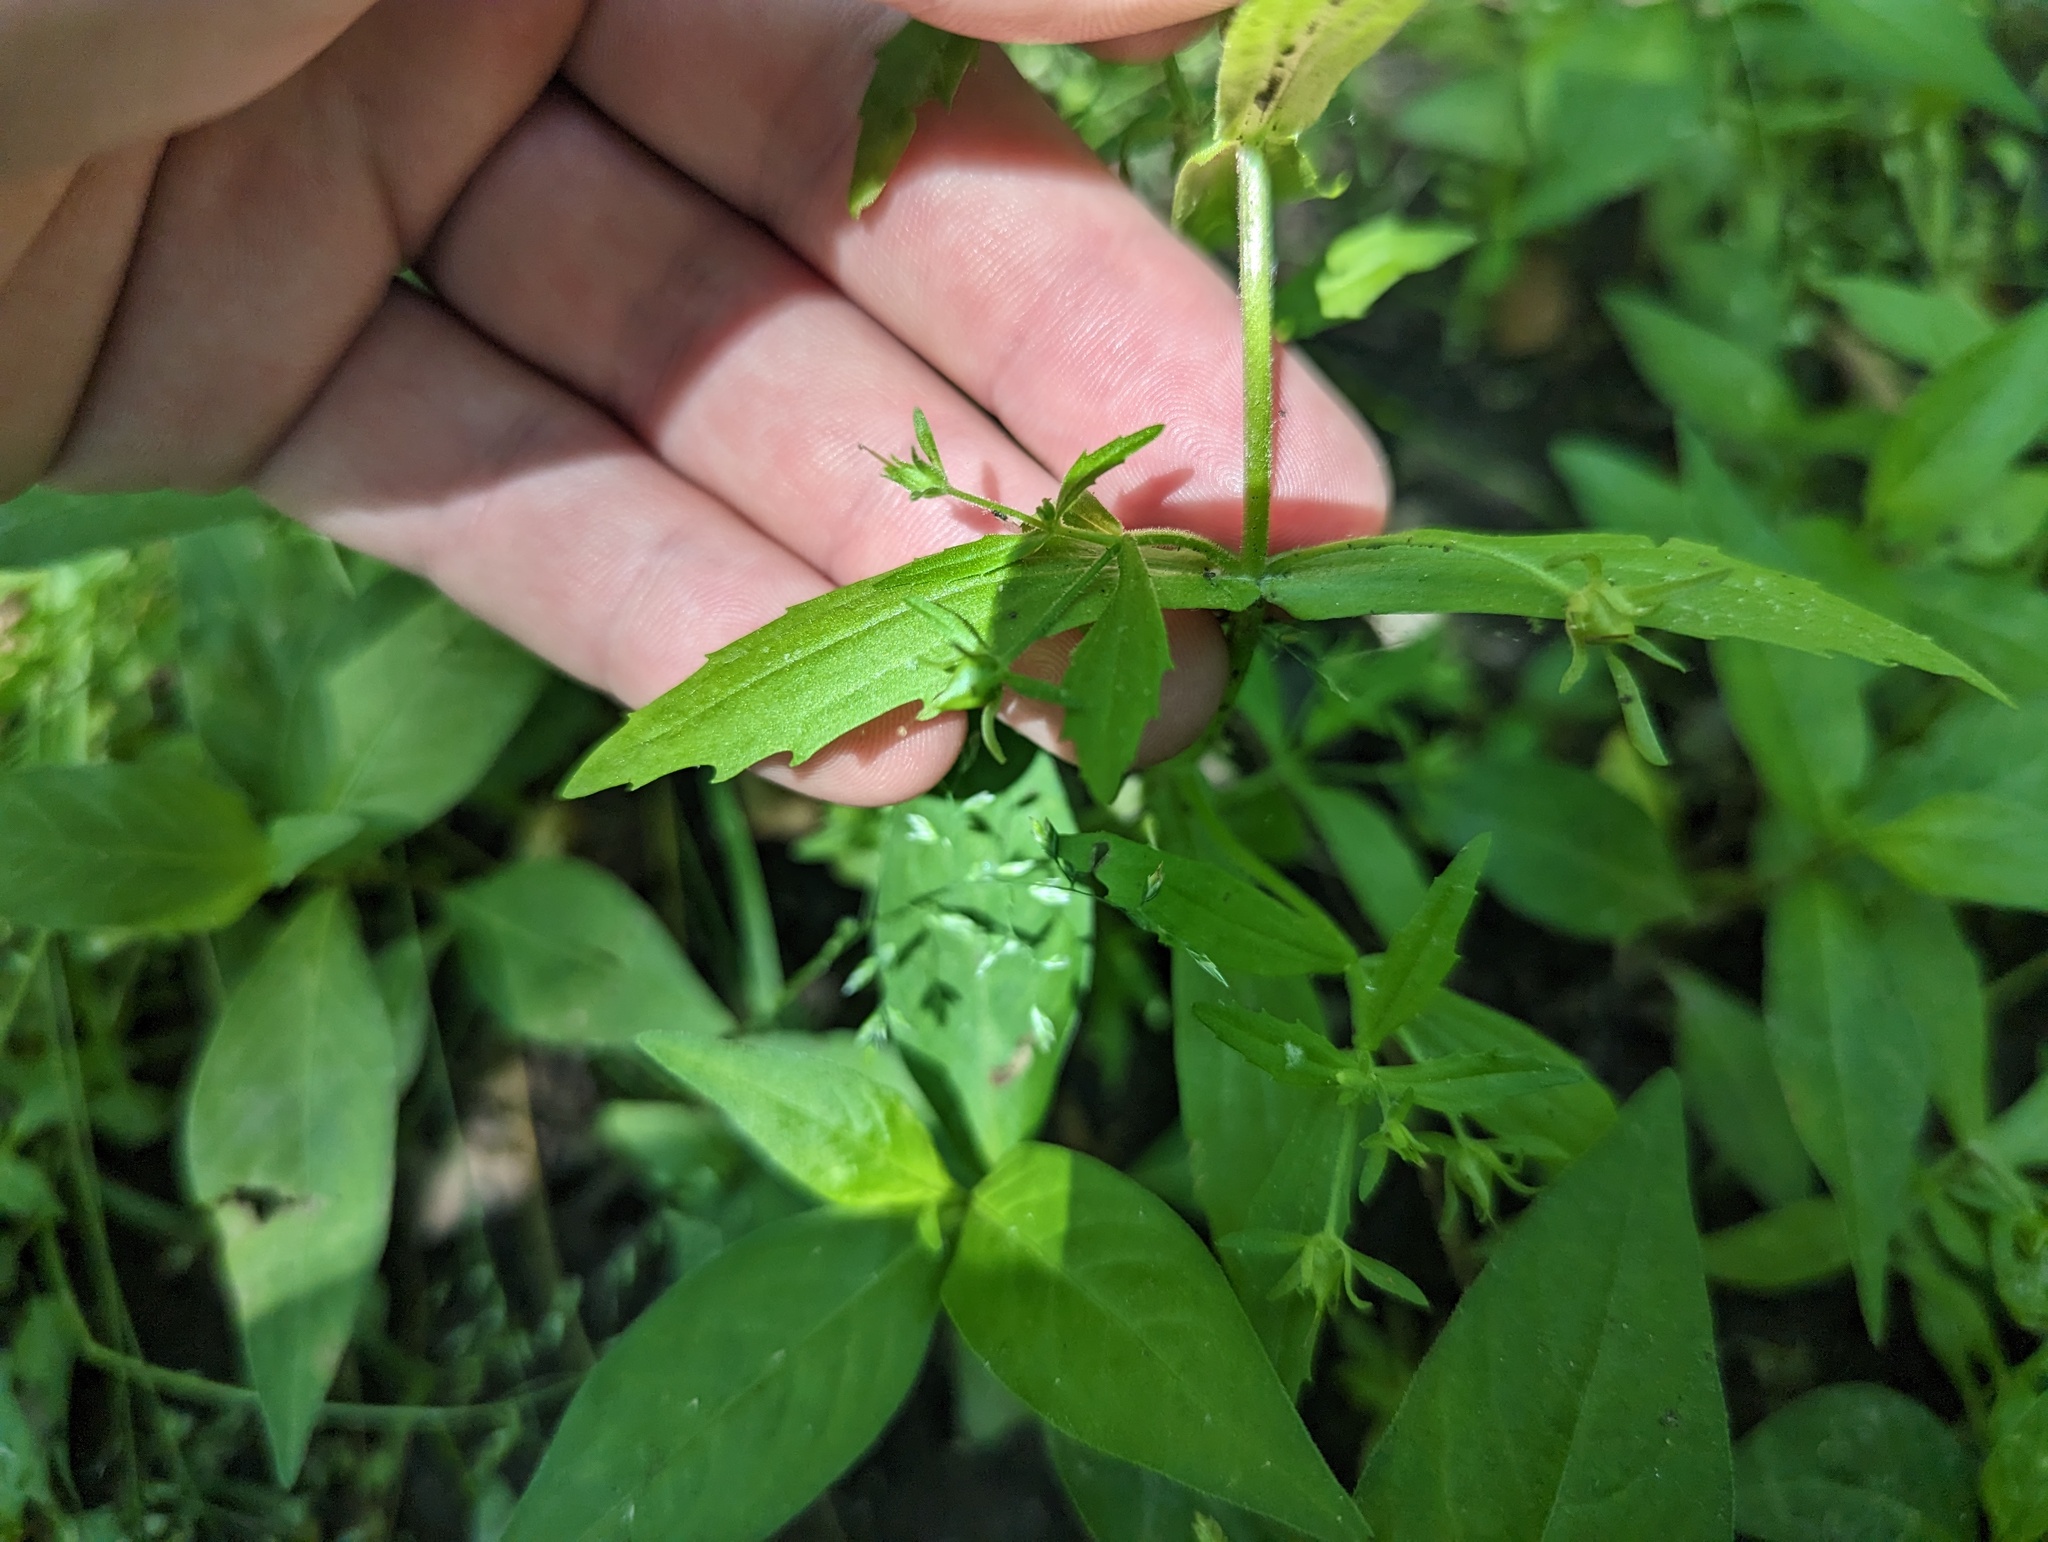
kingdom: Plantae
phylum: Tracheophyta
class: Magnoliopsida
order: Lamiales
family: Plantaginaceae
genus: Gratiola
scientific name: Gratiola neglecta
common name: American hedge-hyssop
